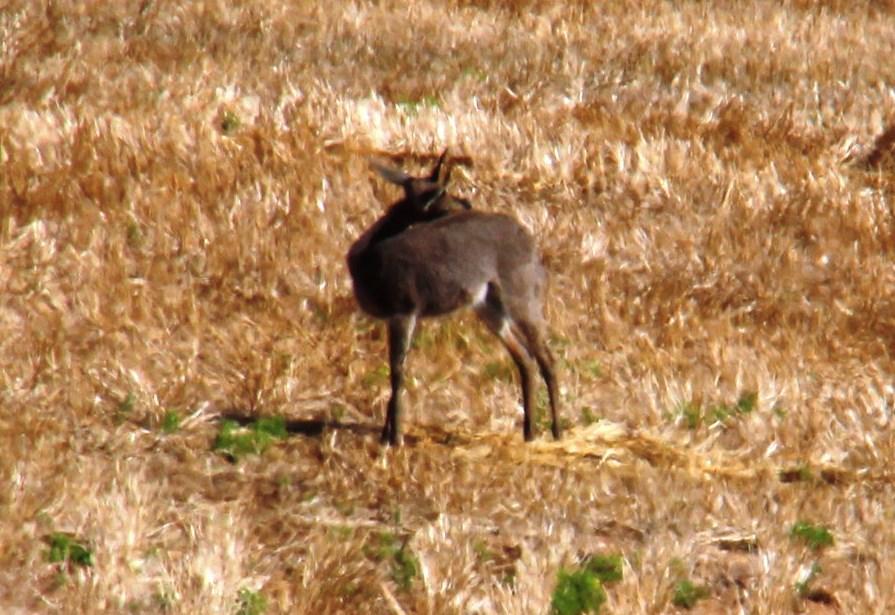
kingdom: Animalia
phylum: Chordata
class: Mammalia
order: Artiodactyla
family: Bovidae
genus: Pelea
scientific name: Pelea capreolus
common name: Common rhebok
